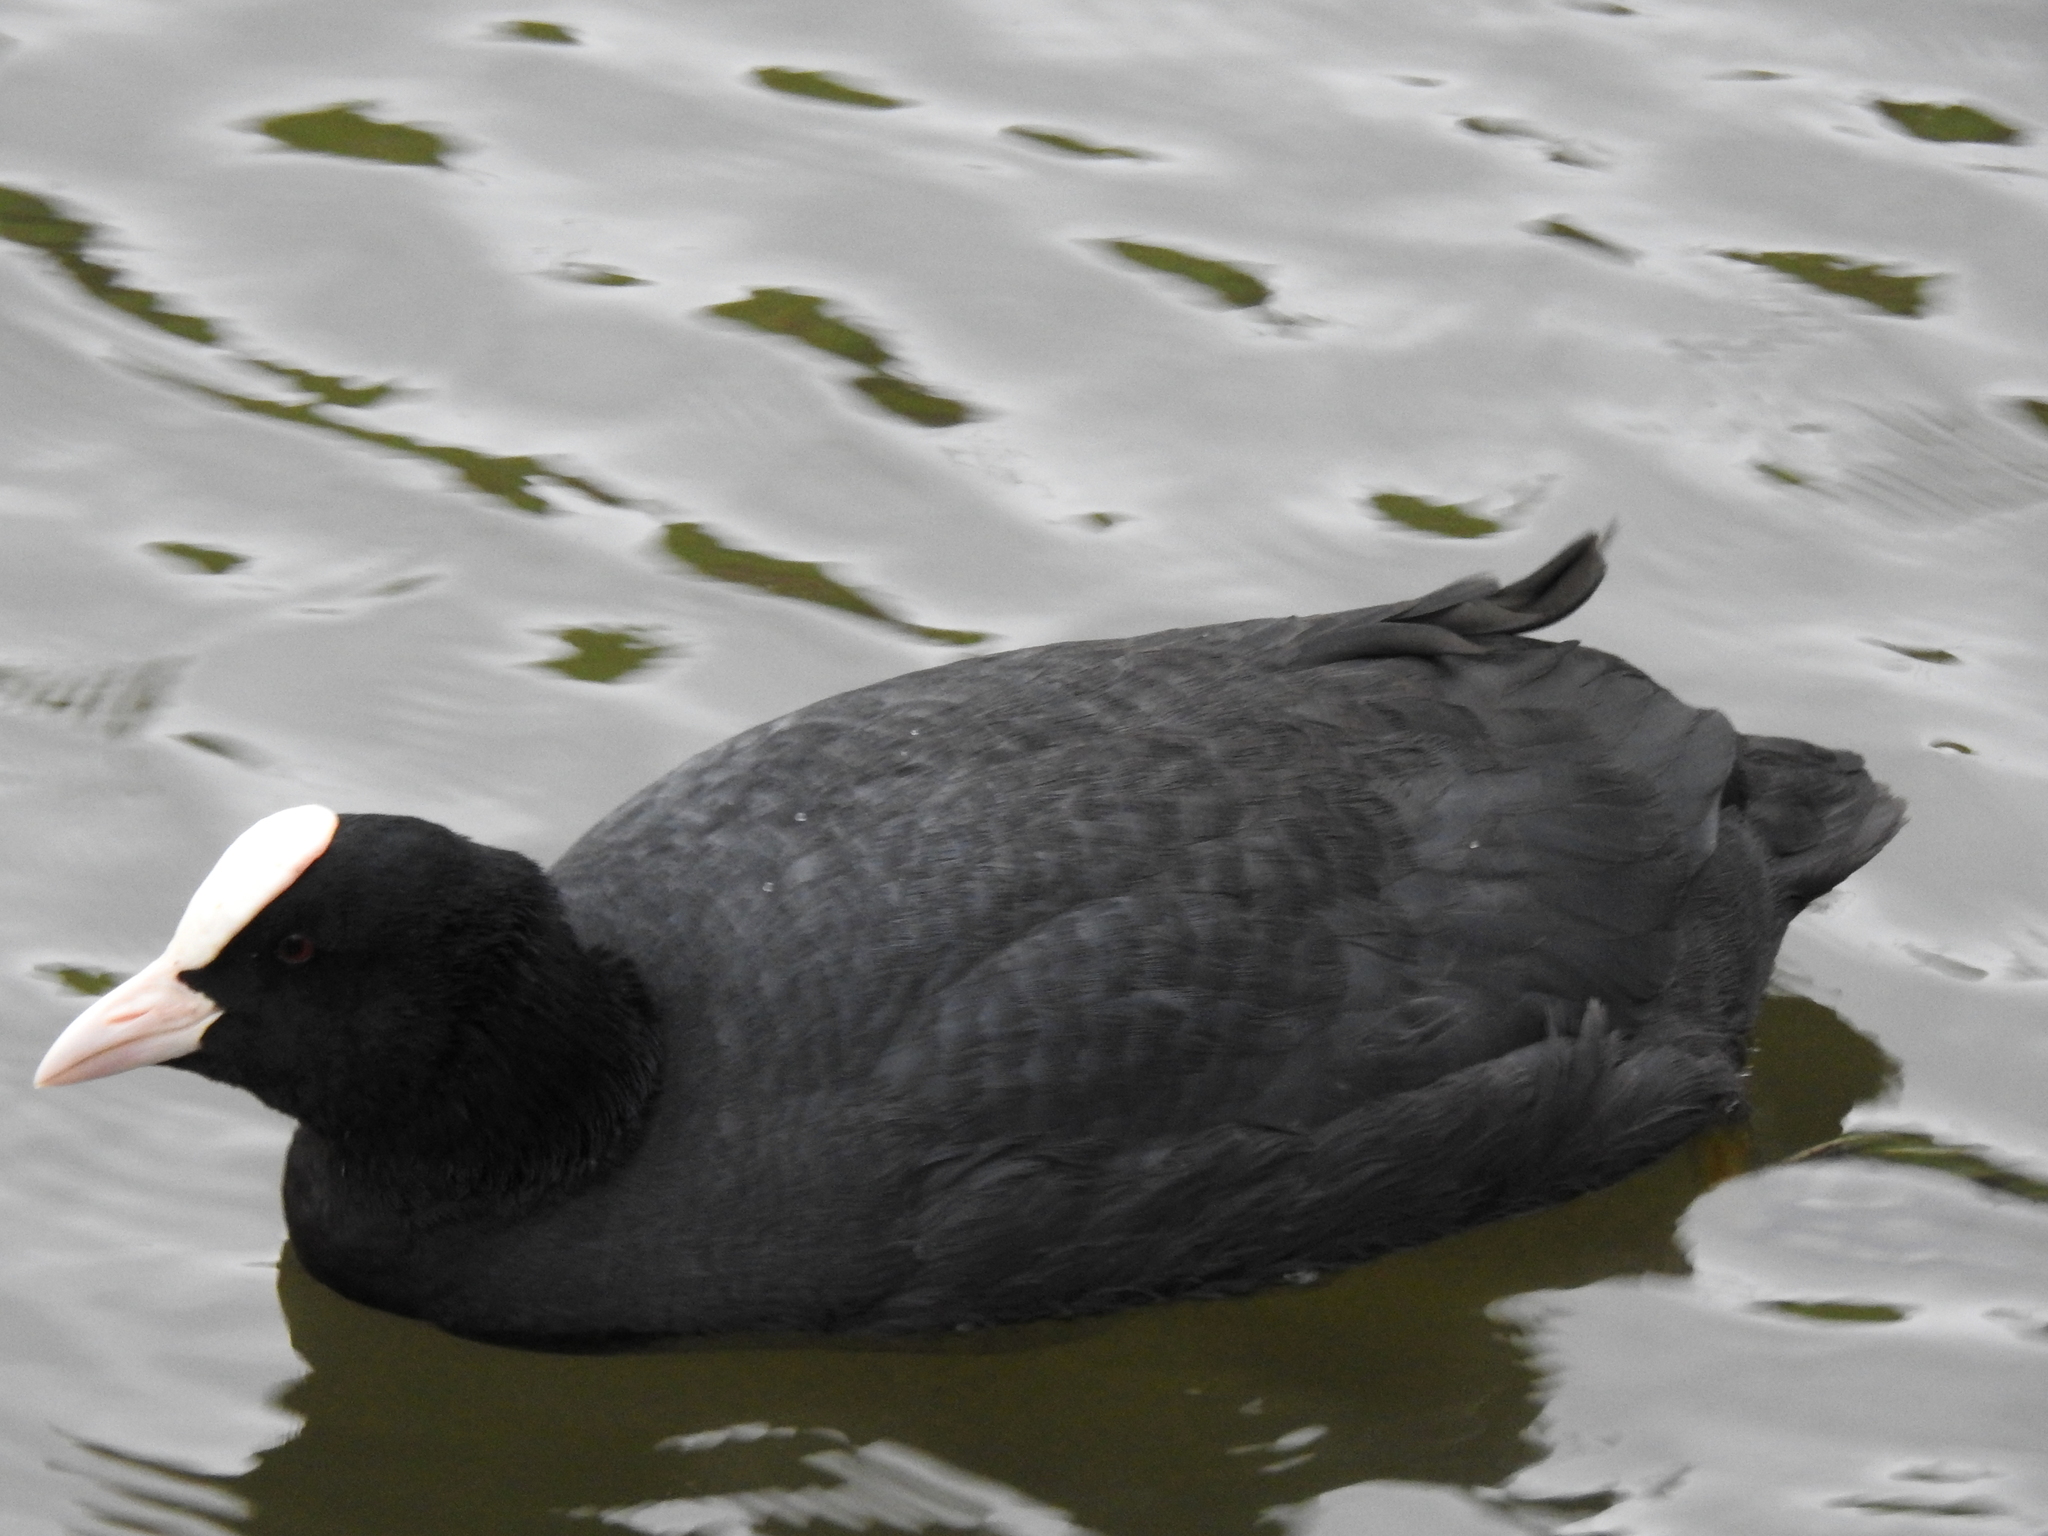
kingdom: Animalia
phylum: Chordata
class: Aves
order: Gruiformes
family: Rallidae
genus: Fulica
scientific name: Fulica atra
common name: Eurasian coot
